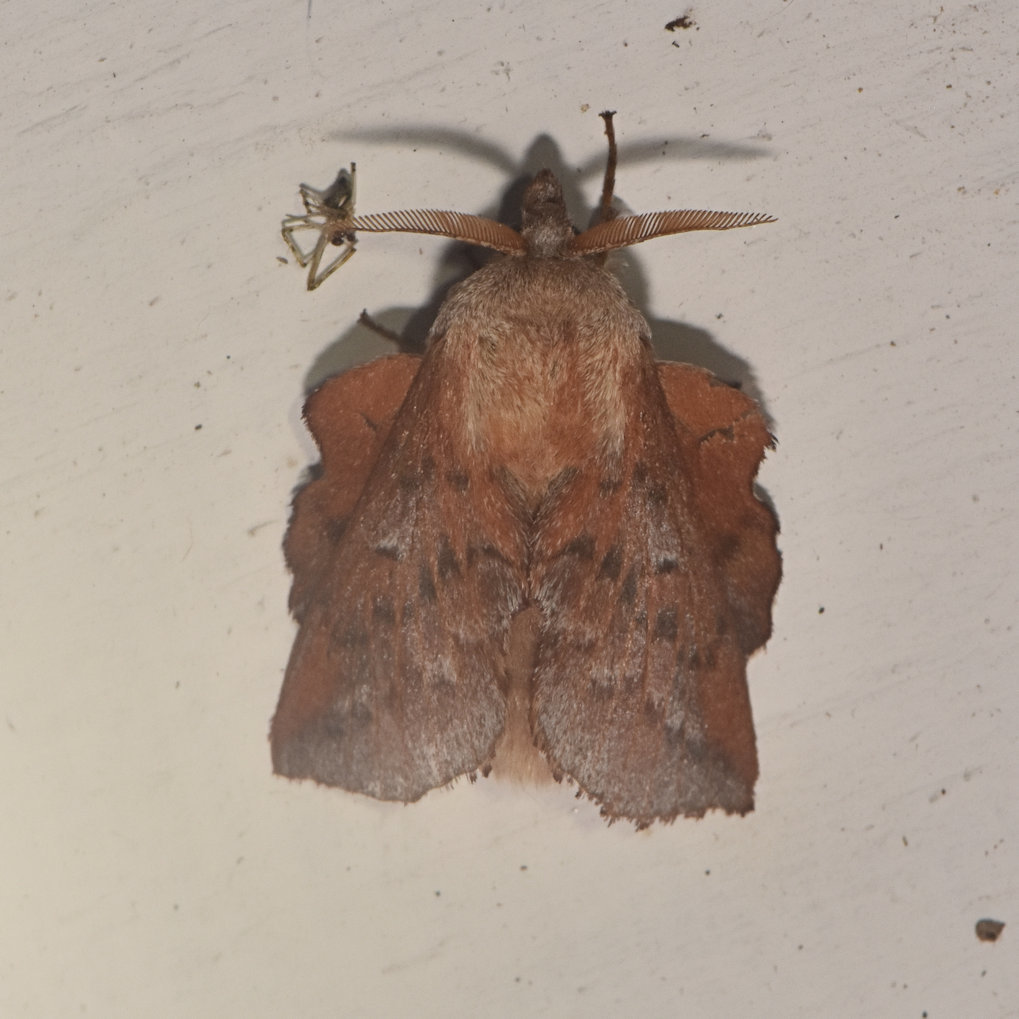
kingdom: Animalia
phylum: Arthropoda
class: Insecta
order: Lepidoptera
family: Lasiocampidae
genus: Phyllodesma
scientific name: Phyllodesma americana
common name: American lappet moth
